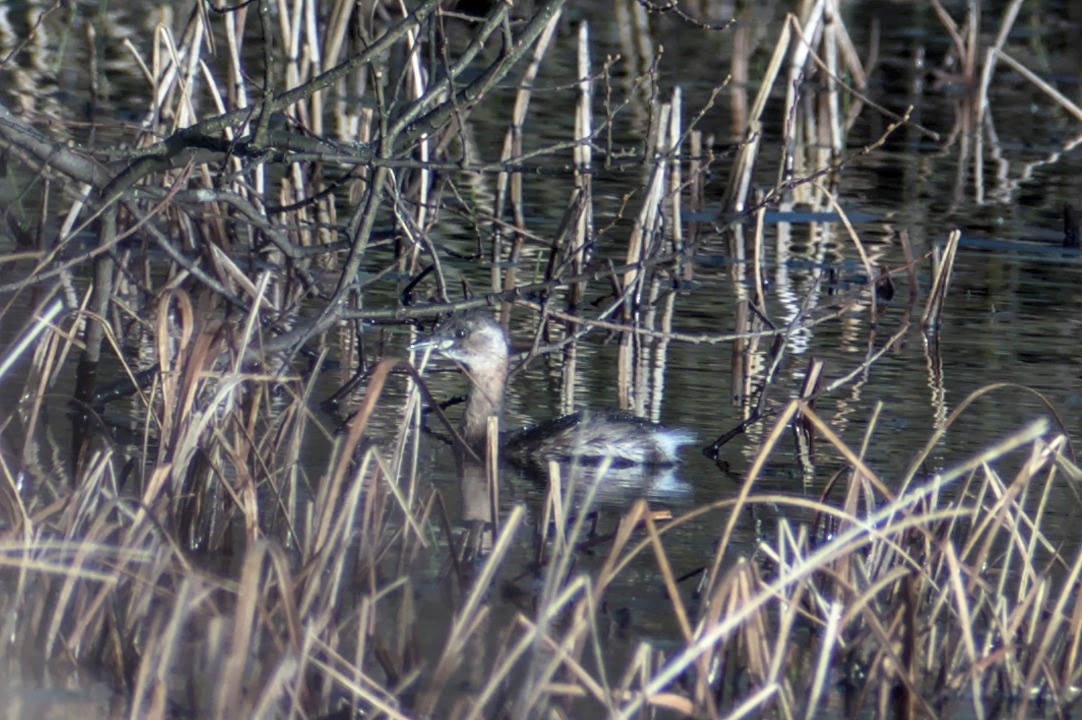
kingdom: Animalia
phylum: Chordata
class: Aves
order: Podicipediformes
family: Podicipedidae
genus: Tachybaptus
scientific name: Tachybaptus ruficollis
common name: Little grebe
